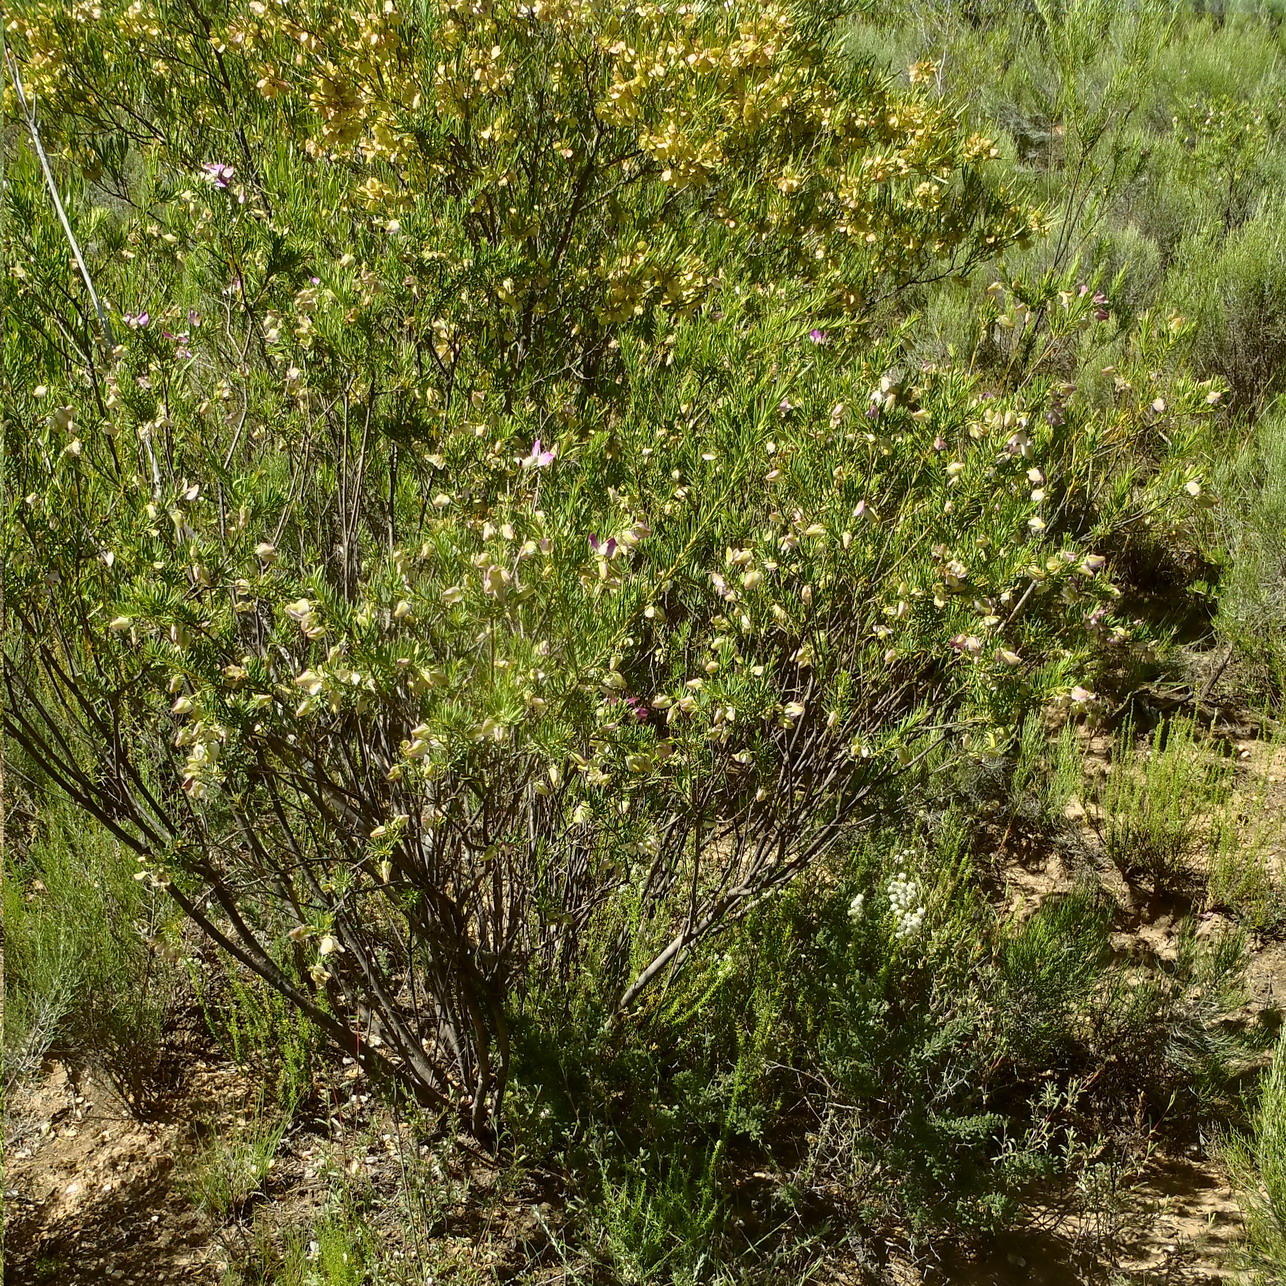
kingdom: Plantae
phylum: Tracheophyta
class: Magnoliopsida
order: Fabales
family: Polygalaceae
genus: Polygala
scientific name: Polygala myrtifolia
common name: Myrtle-leaf milkwort
